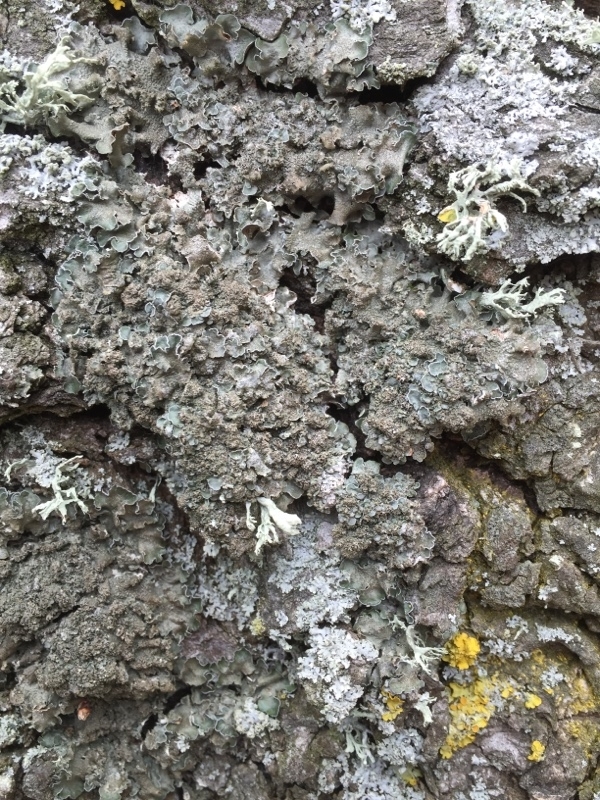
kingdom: Fungi
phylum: Ascomycota
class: Lecanoromycetes
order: Lecanorales
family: Parmeliaceae
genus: Pleurosticta
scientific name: Pleurosticta acetabulum
